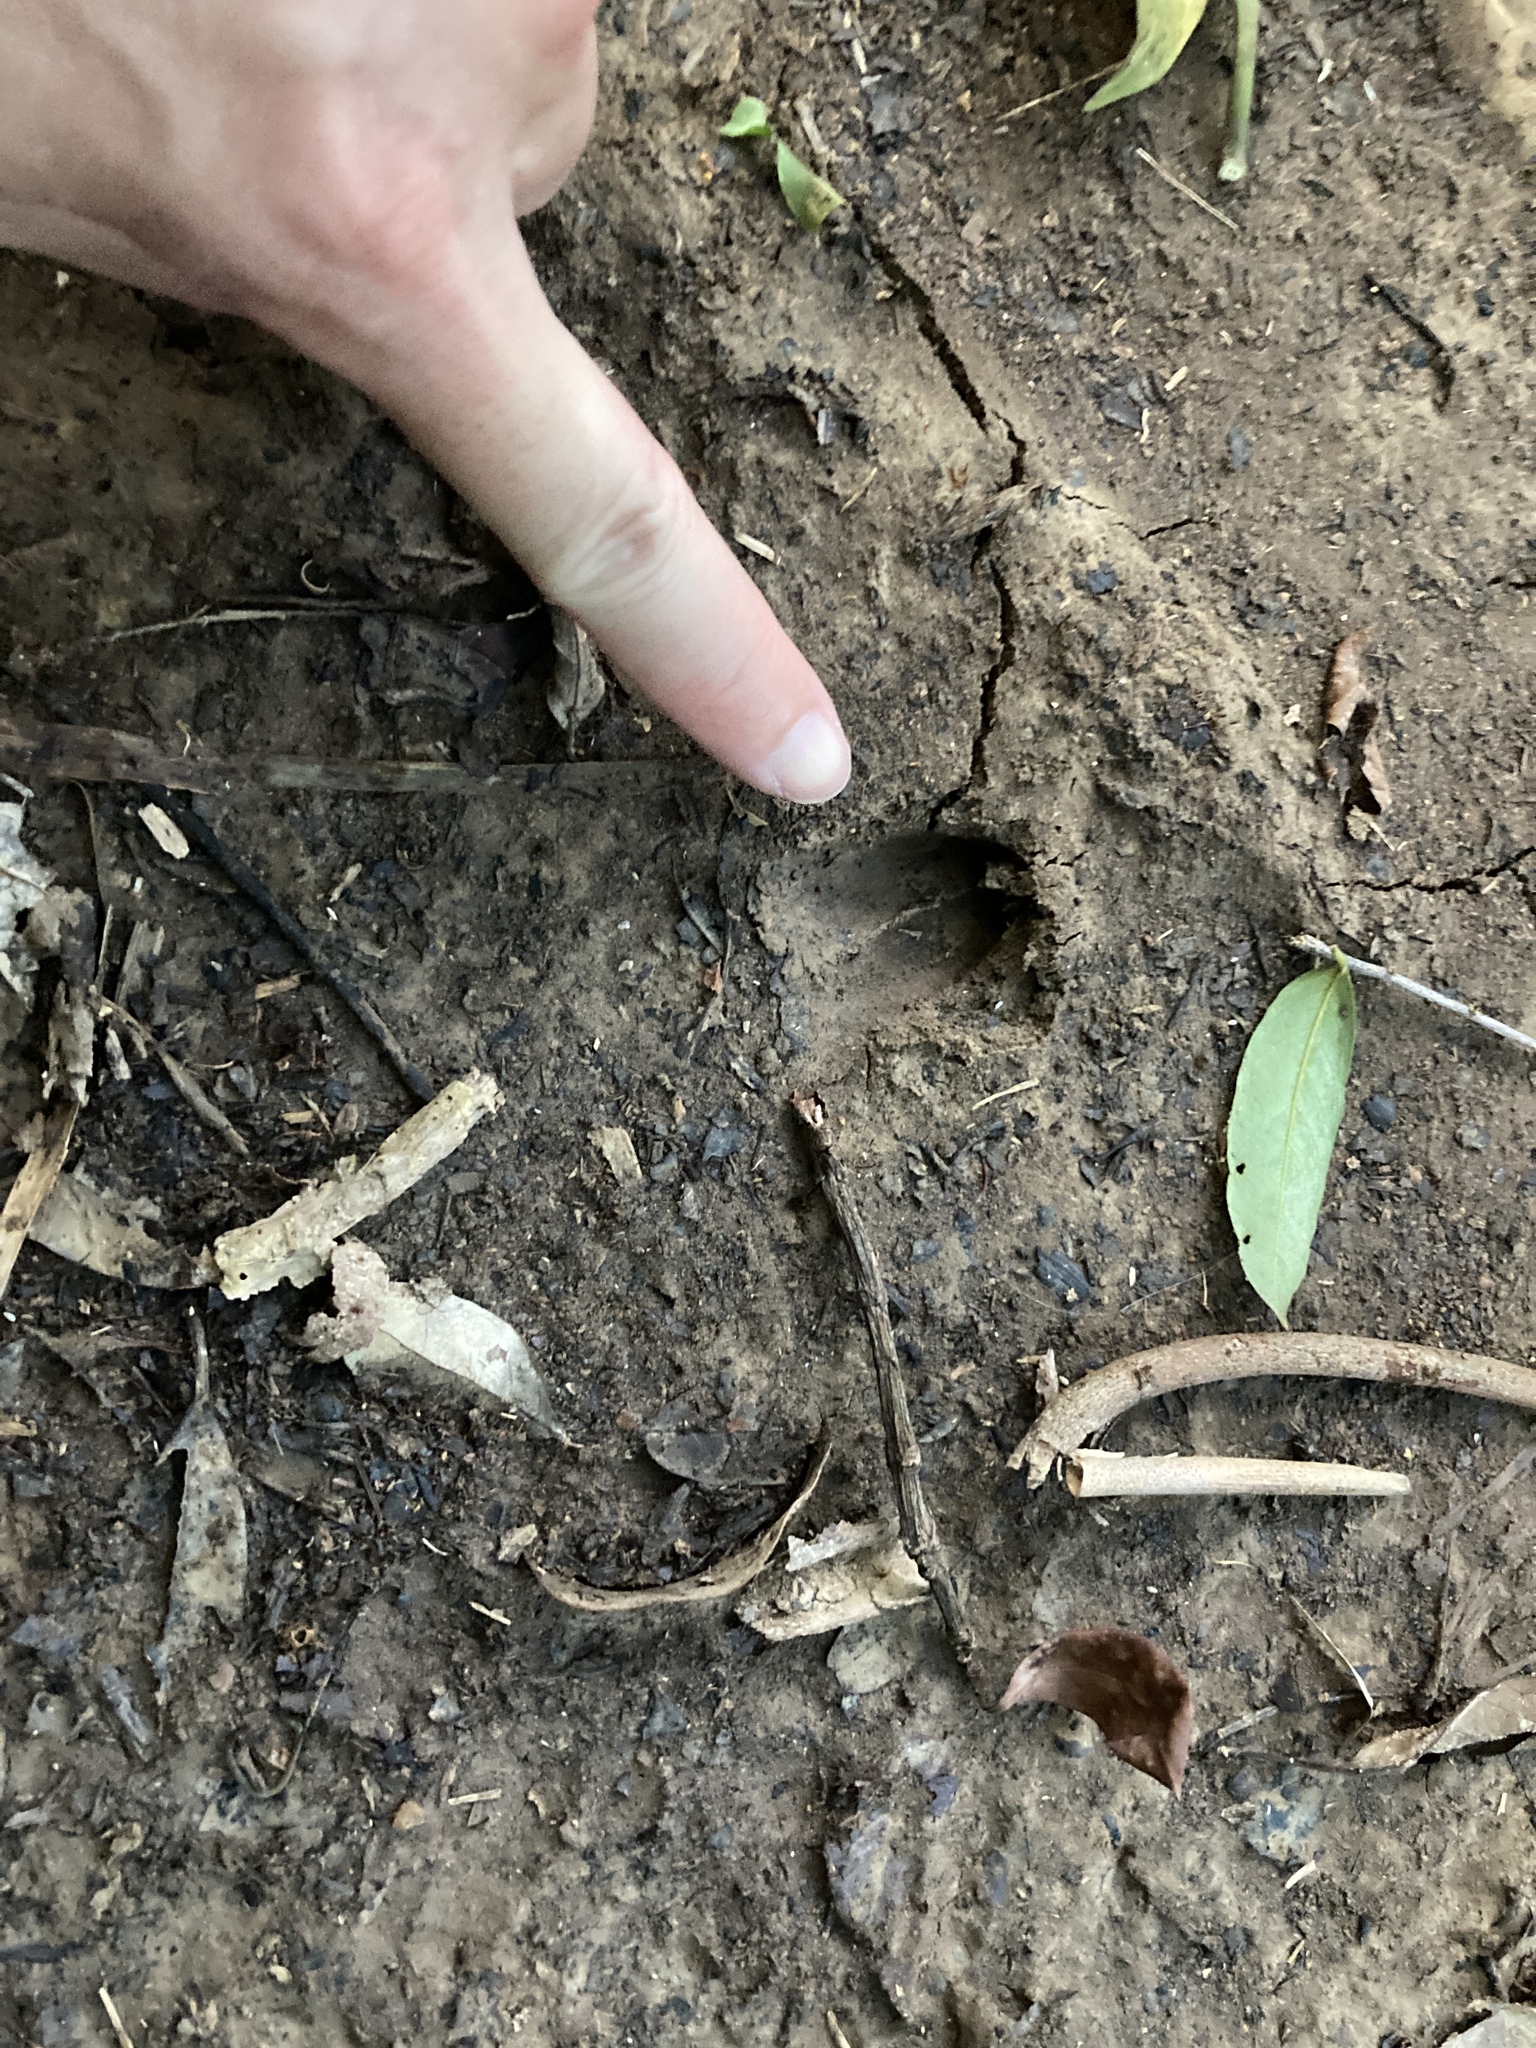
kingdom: Animalia
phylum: Chordata
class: Mammalia
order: Artiodactyla
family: Cervidae
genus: Muntiacus
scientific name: Muntiacus reevesi
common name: Reeves' muntjac
